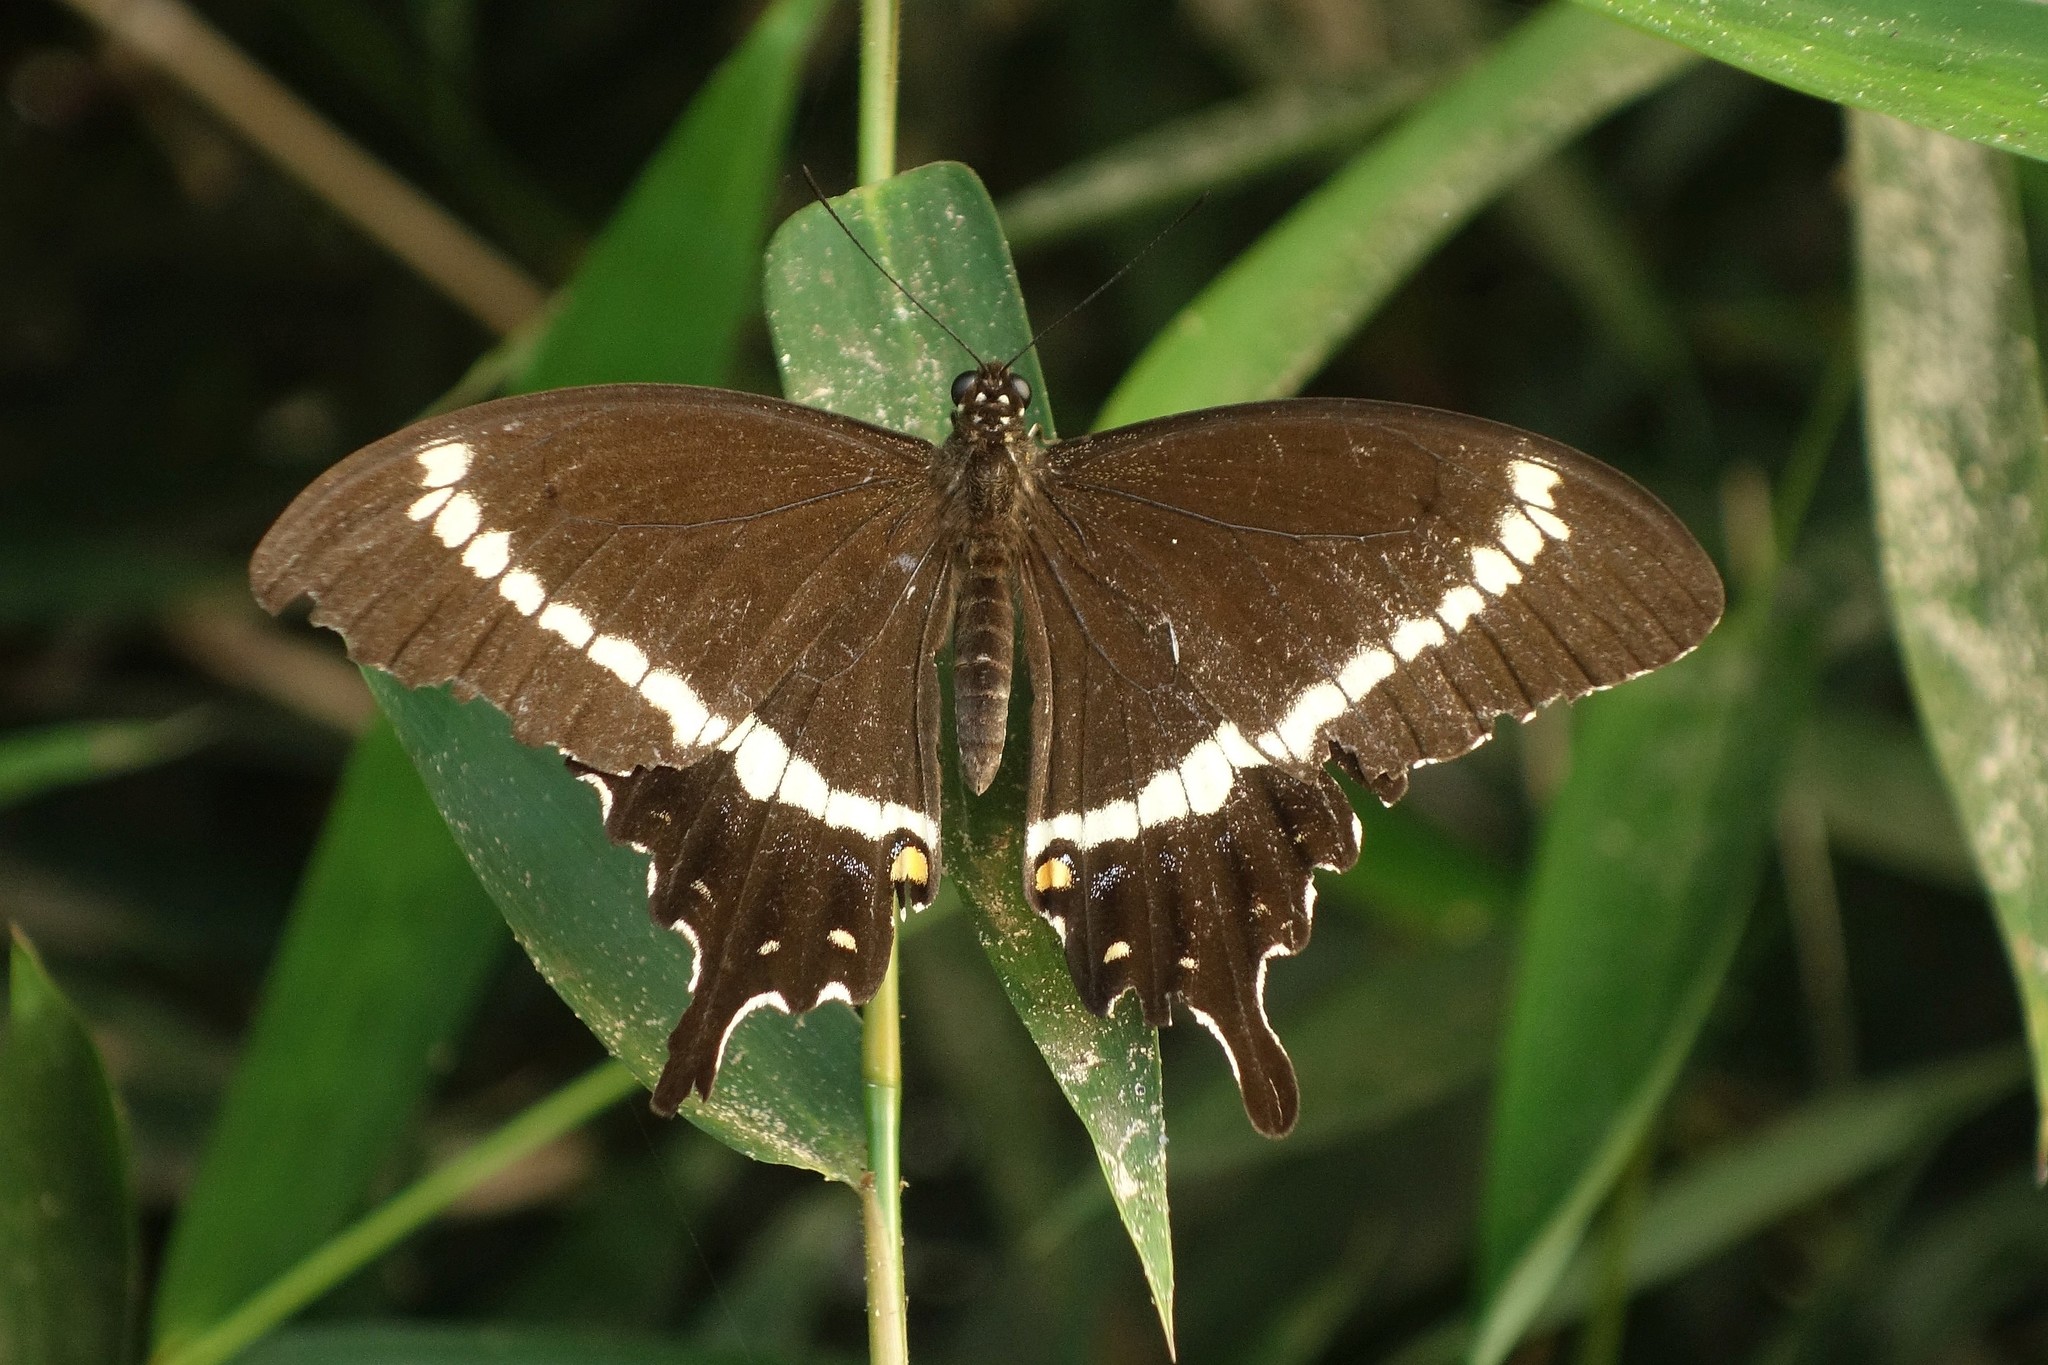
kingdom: Animalia
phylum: Arthropoda
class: Insecta
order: Lepidoptera
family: Papilionidae
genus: Papilio
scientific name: Papilio fuscus
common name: Fuscous swallowtail
